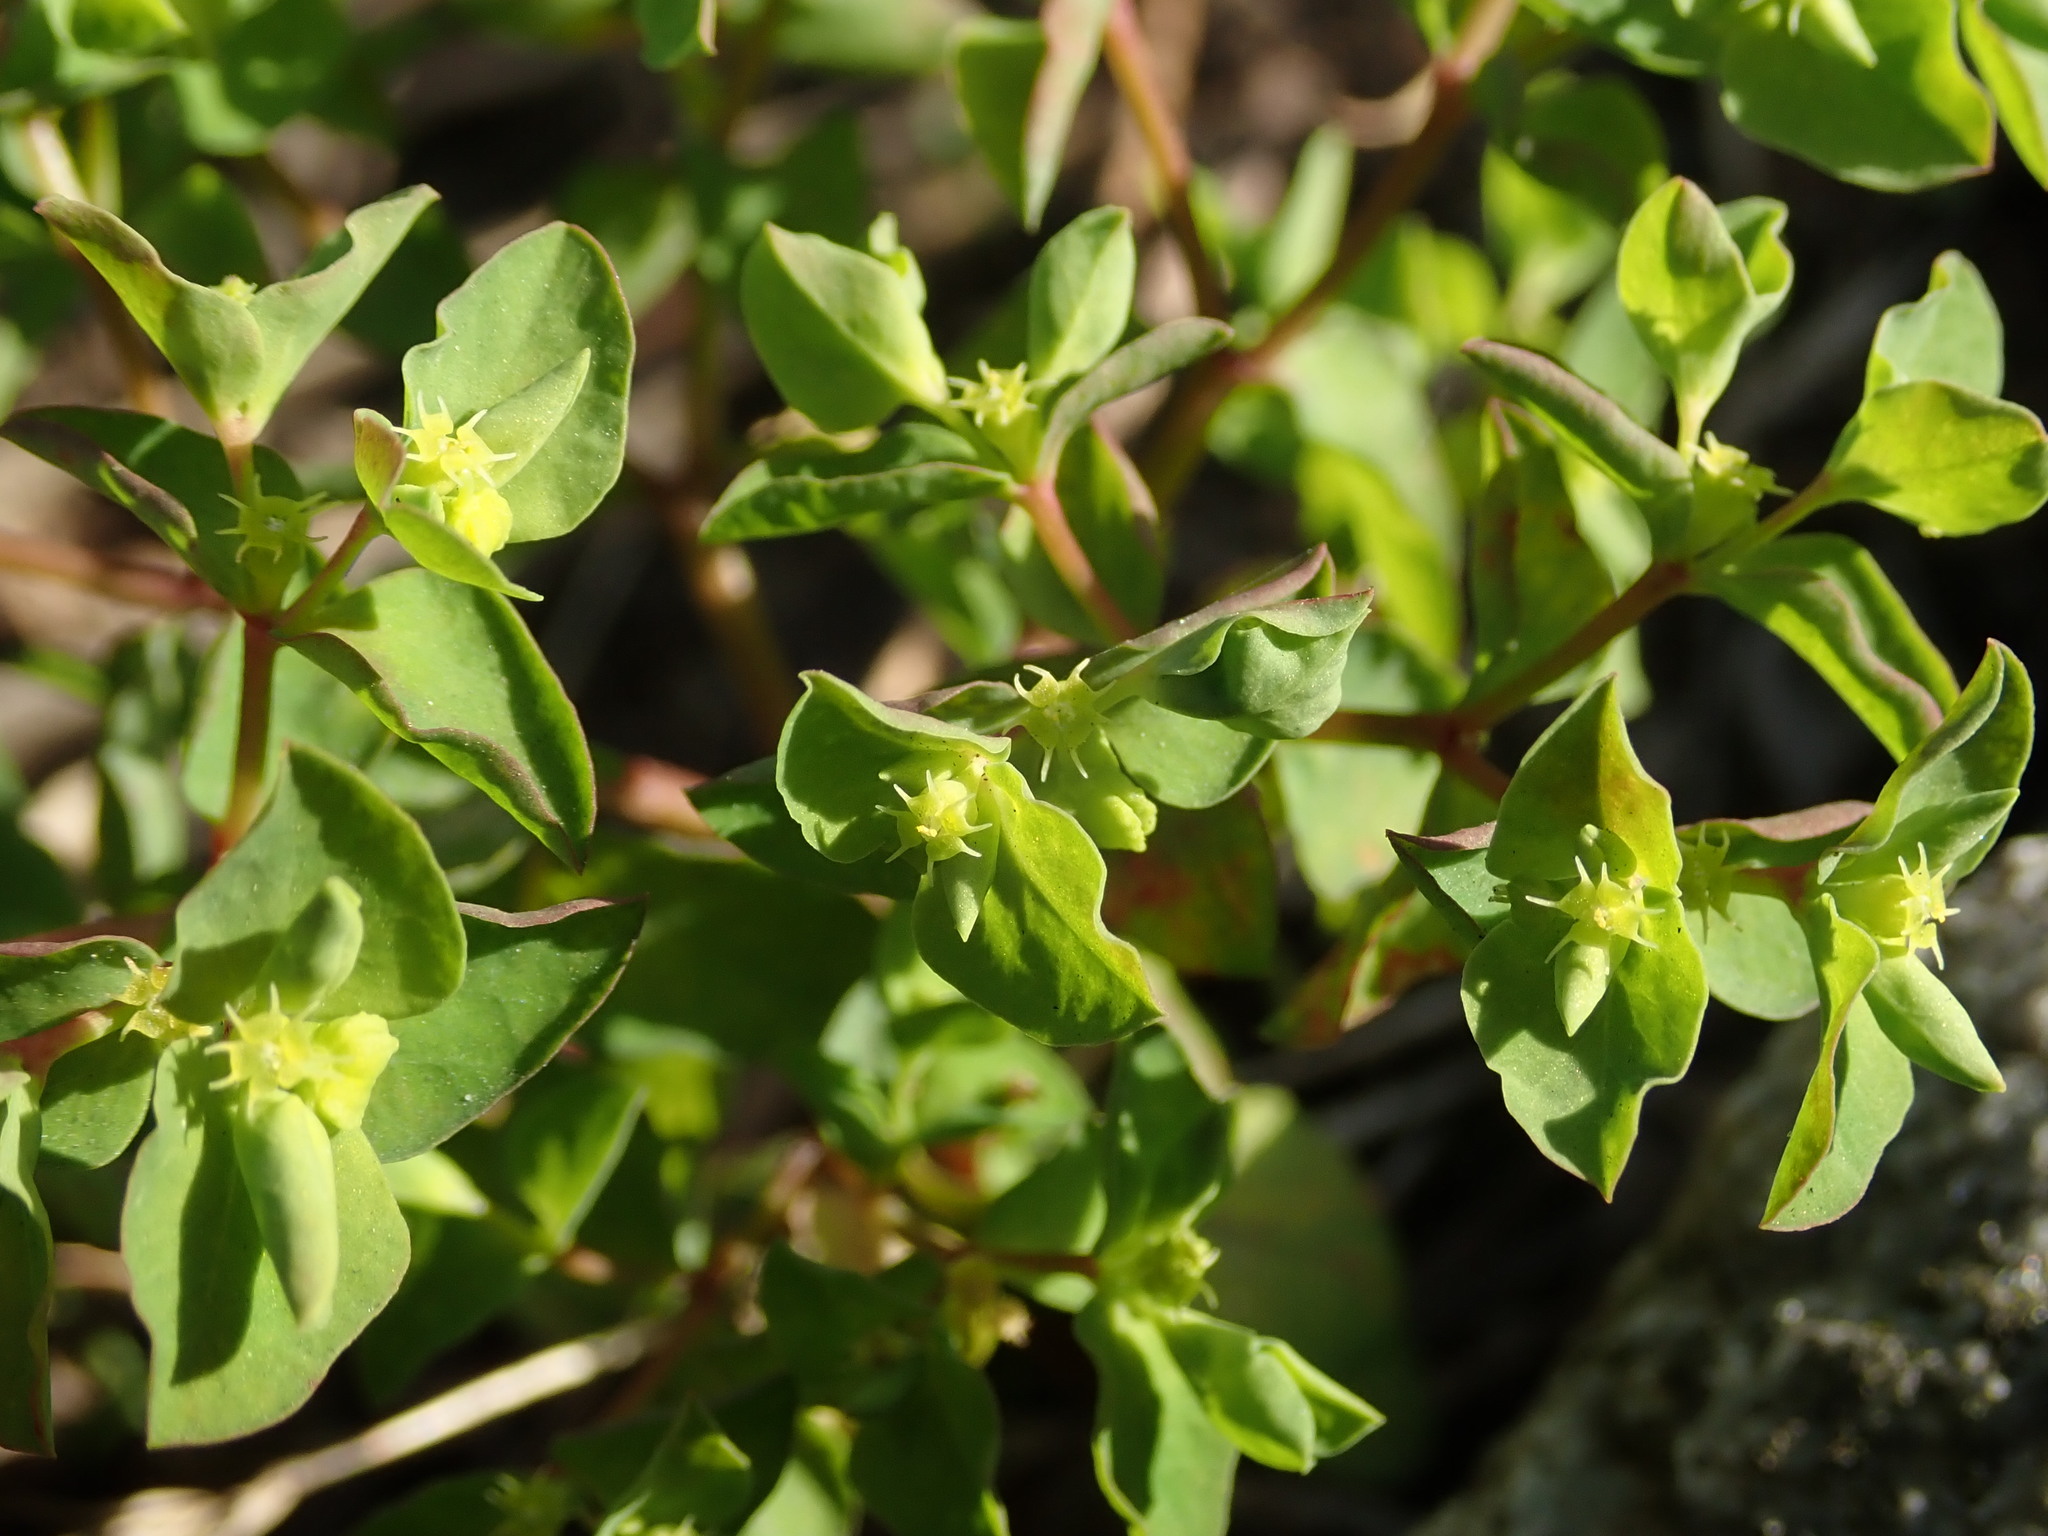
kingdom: Plantae
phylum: Tracheophyta
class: Magnoliopsida
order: Malpighiales
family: Euphorbiaceae
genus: Euphorbia
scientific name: Euphorbia peplus
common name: Petty spurge
